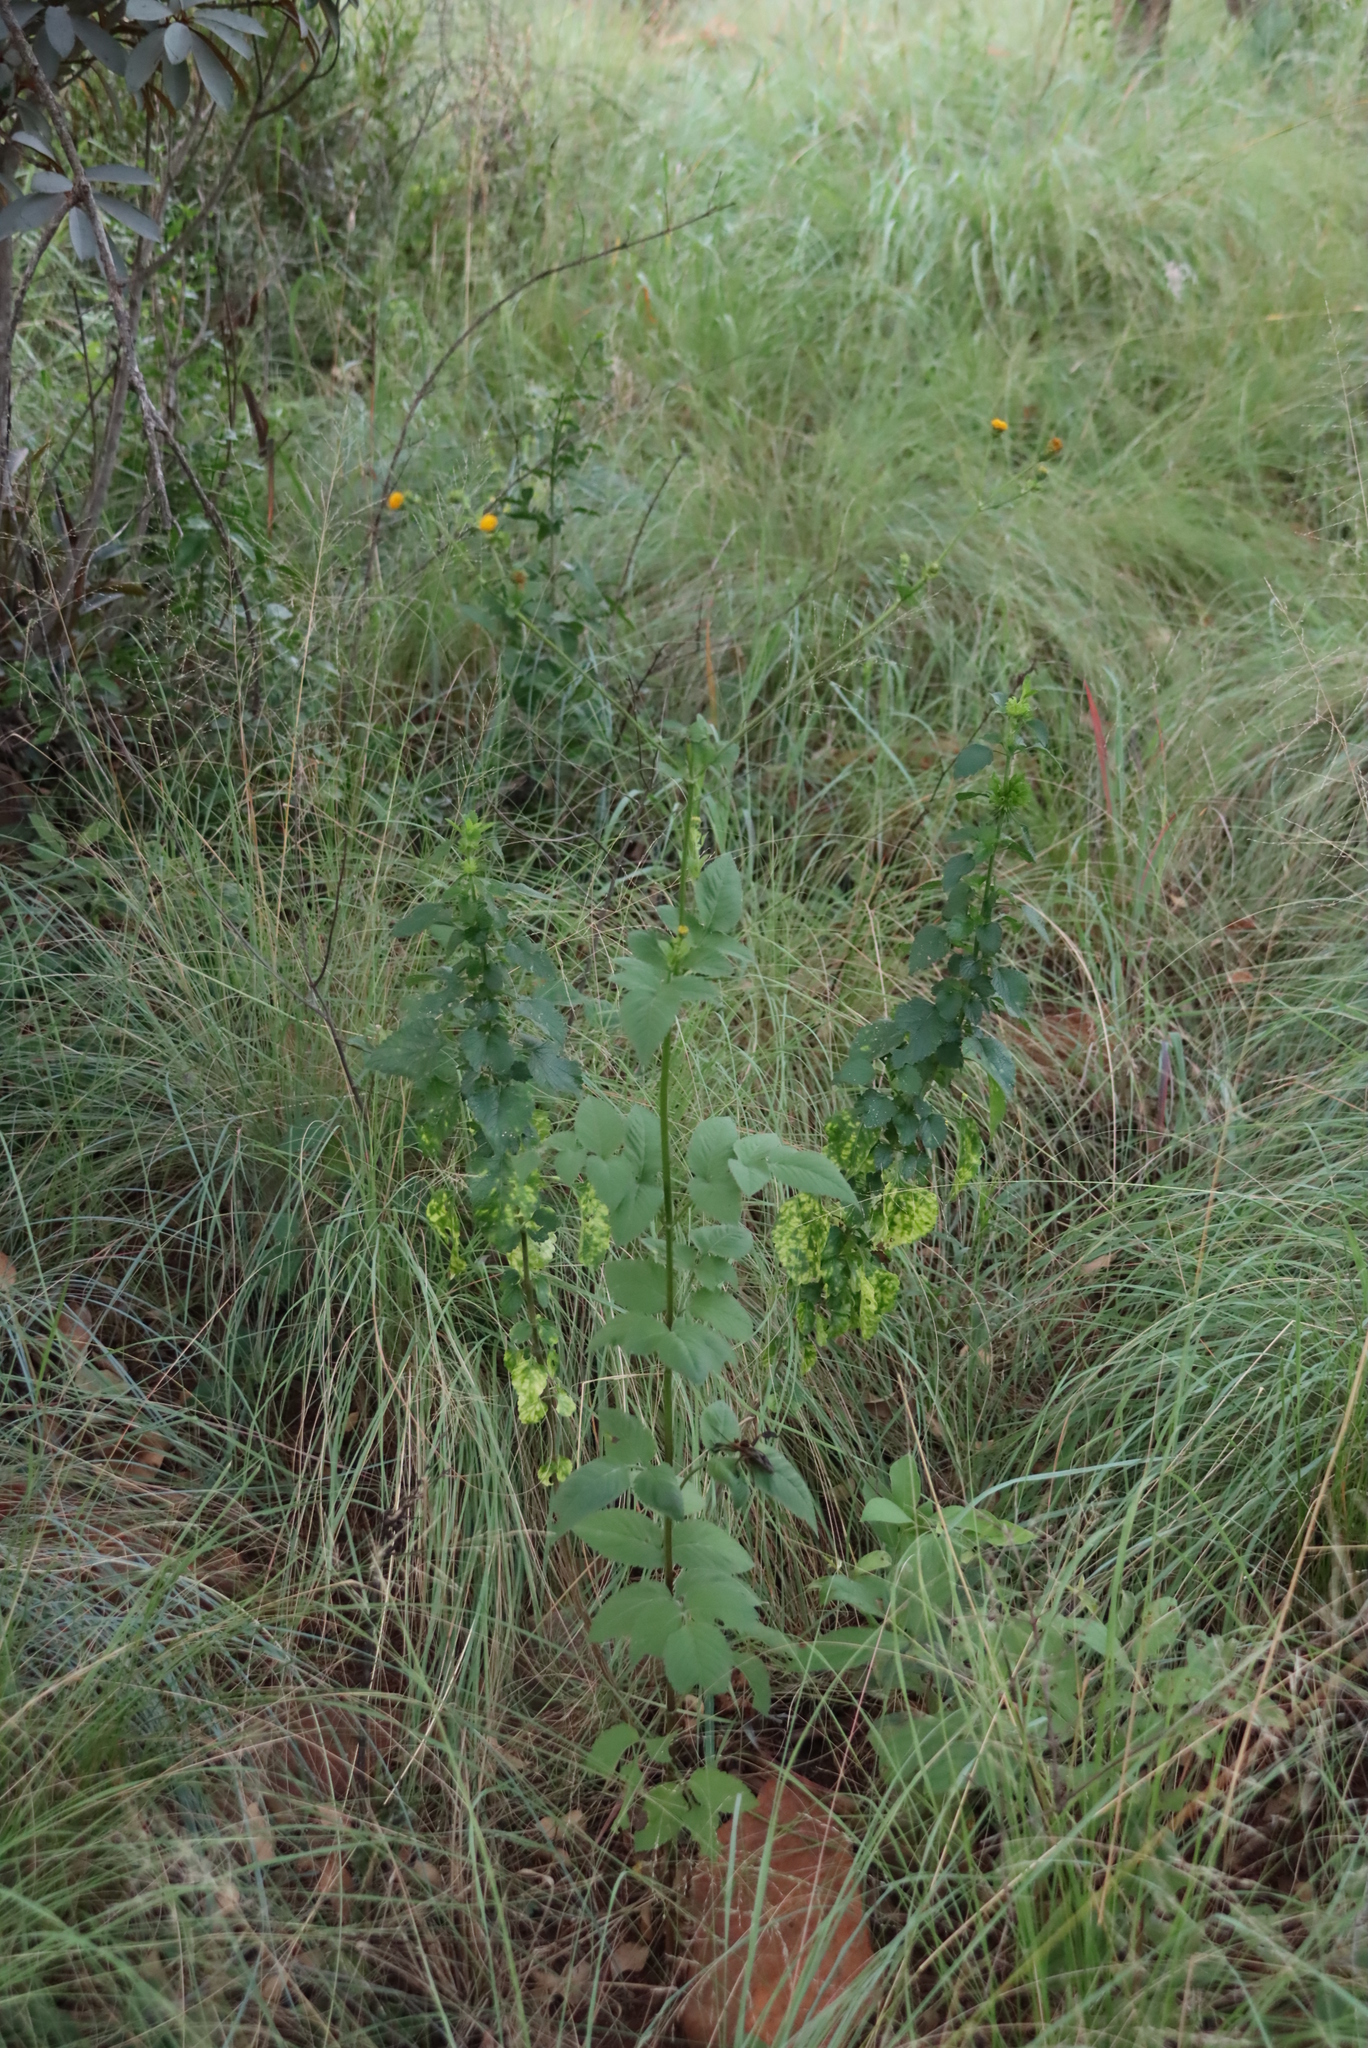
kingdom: Plantae
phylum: Tracheophyta
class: Magnoliopsida
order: Asterales
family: Asteraceae
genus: Bidens
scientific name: Bidens pilosa
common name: Black-jack
